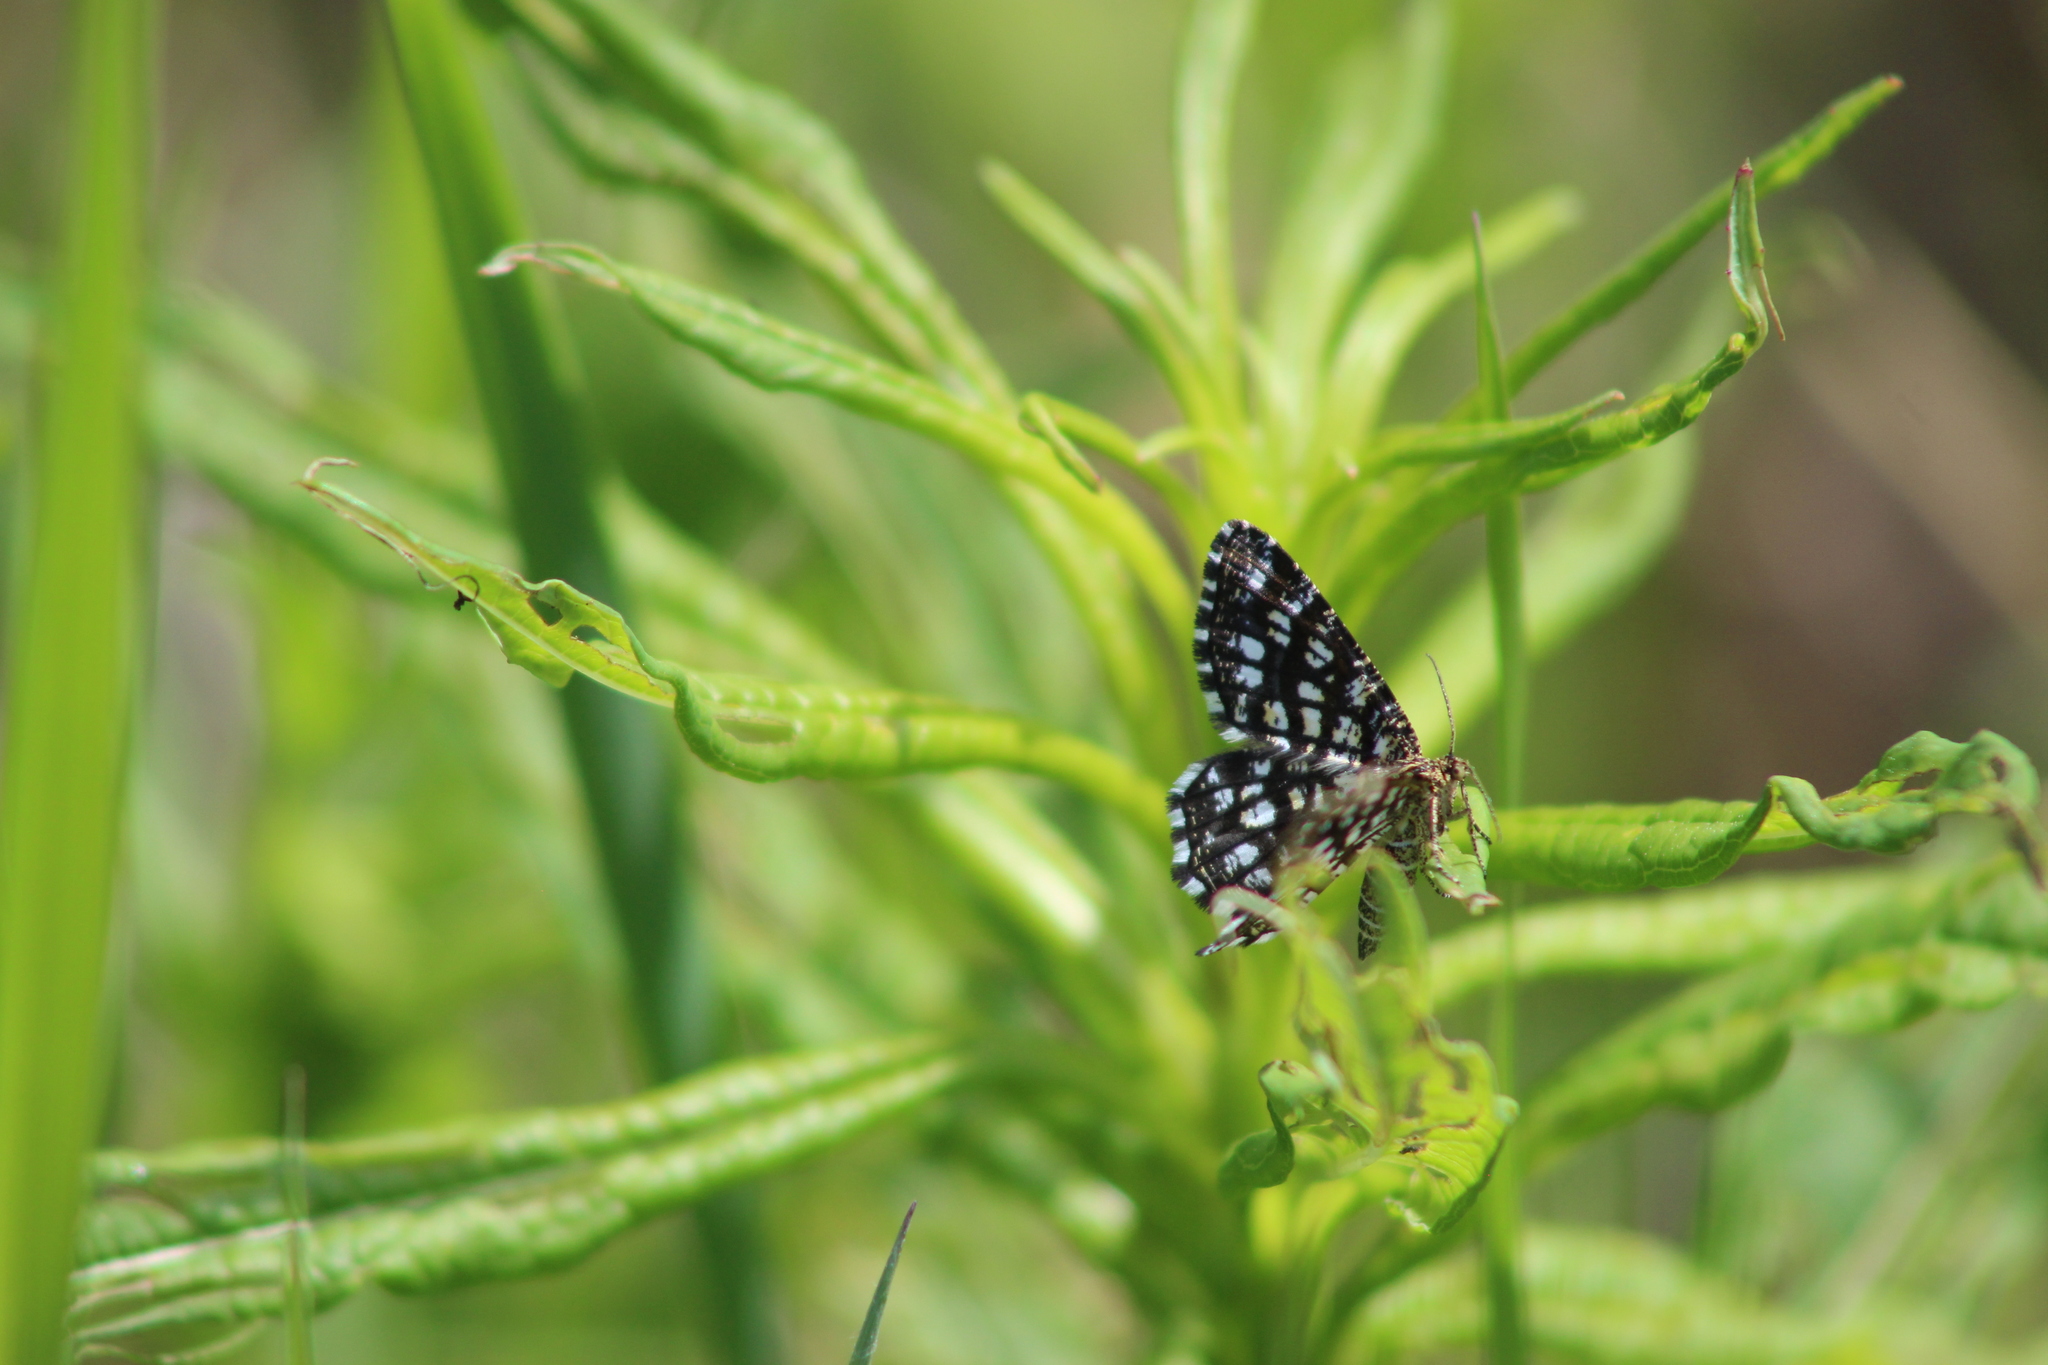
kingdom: Animalia
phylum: Arthropoda
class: Insecta
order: Lepidoptera
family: Geometridae
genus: Chiasmia
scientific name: Chiasmia clathrata
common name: Latticed heath
